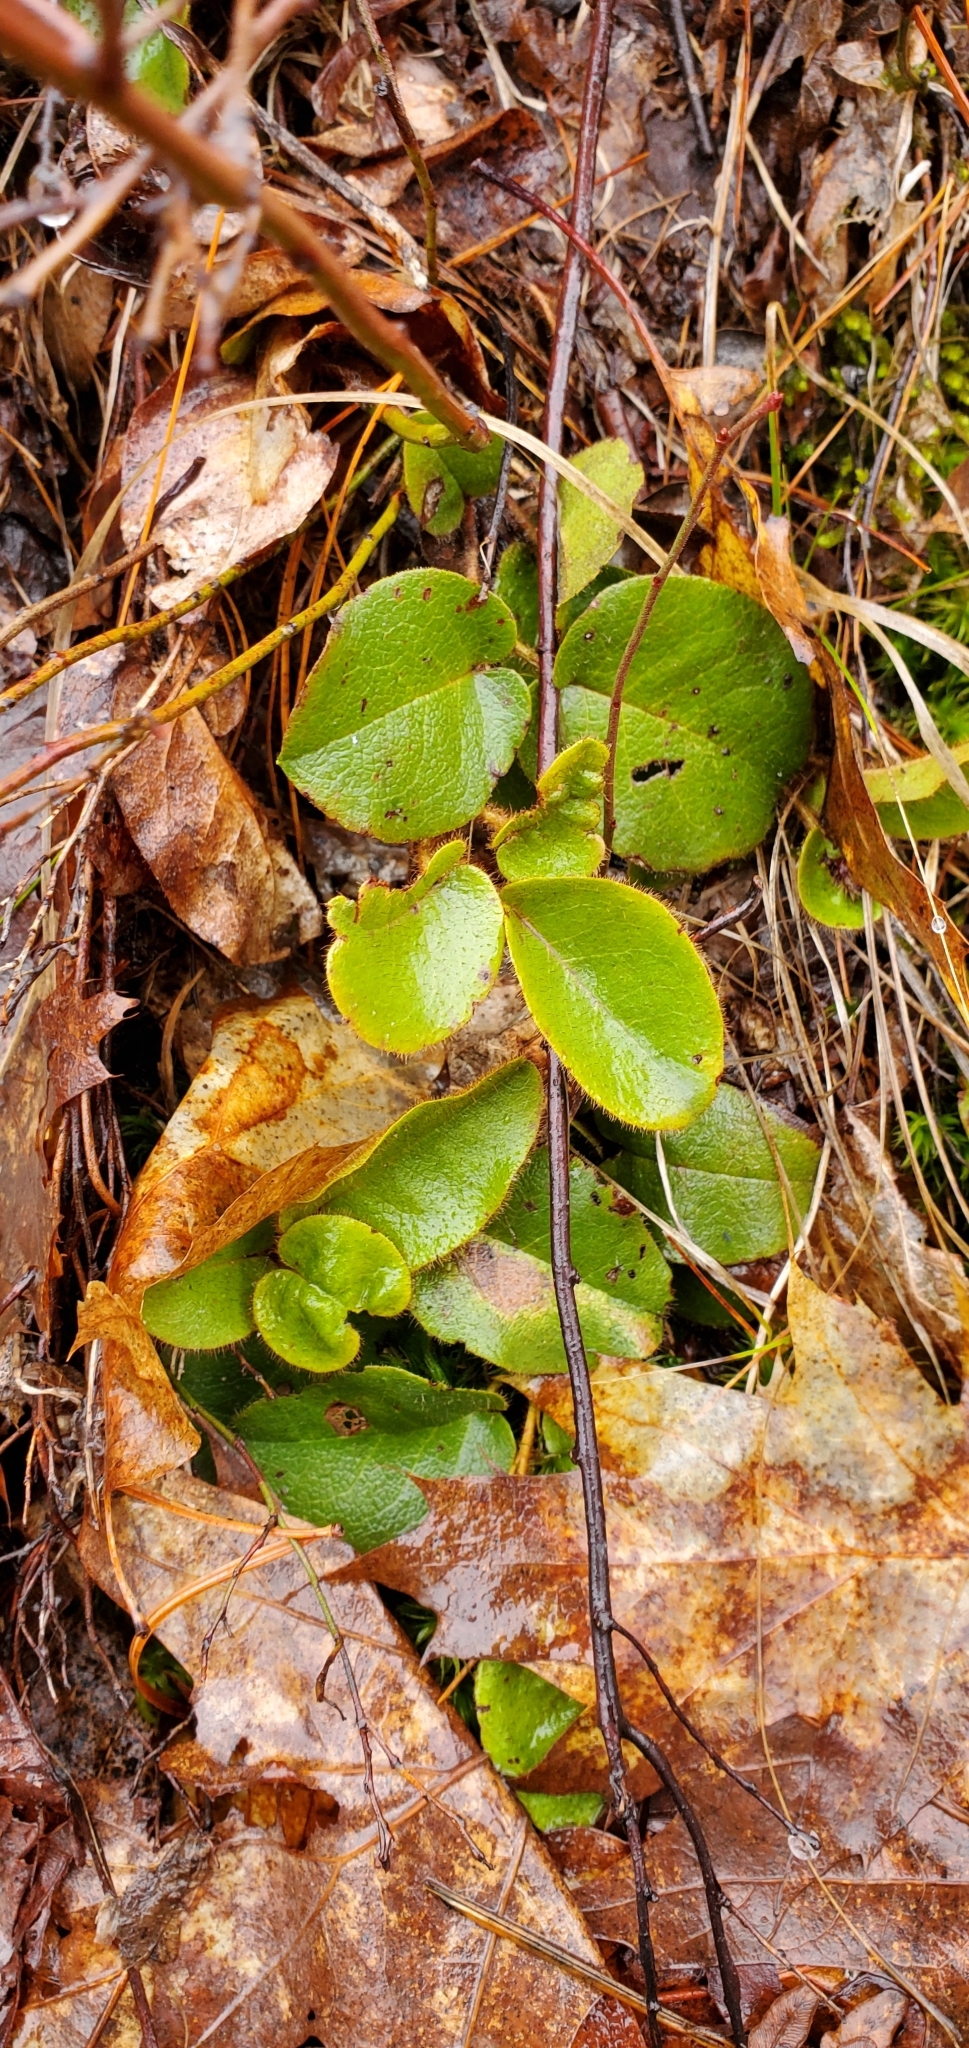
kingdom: Plantae
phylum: Tracheophyta
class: Magnoliopsida
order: Ericales
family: Ericaceae
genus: Epigaea
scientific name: Epigaea repens
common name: Gravelroot
